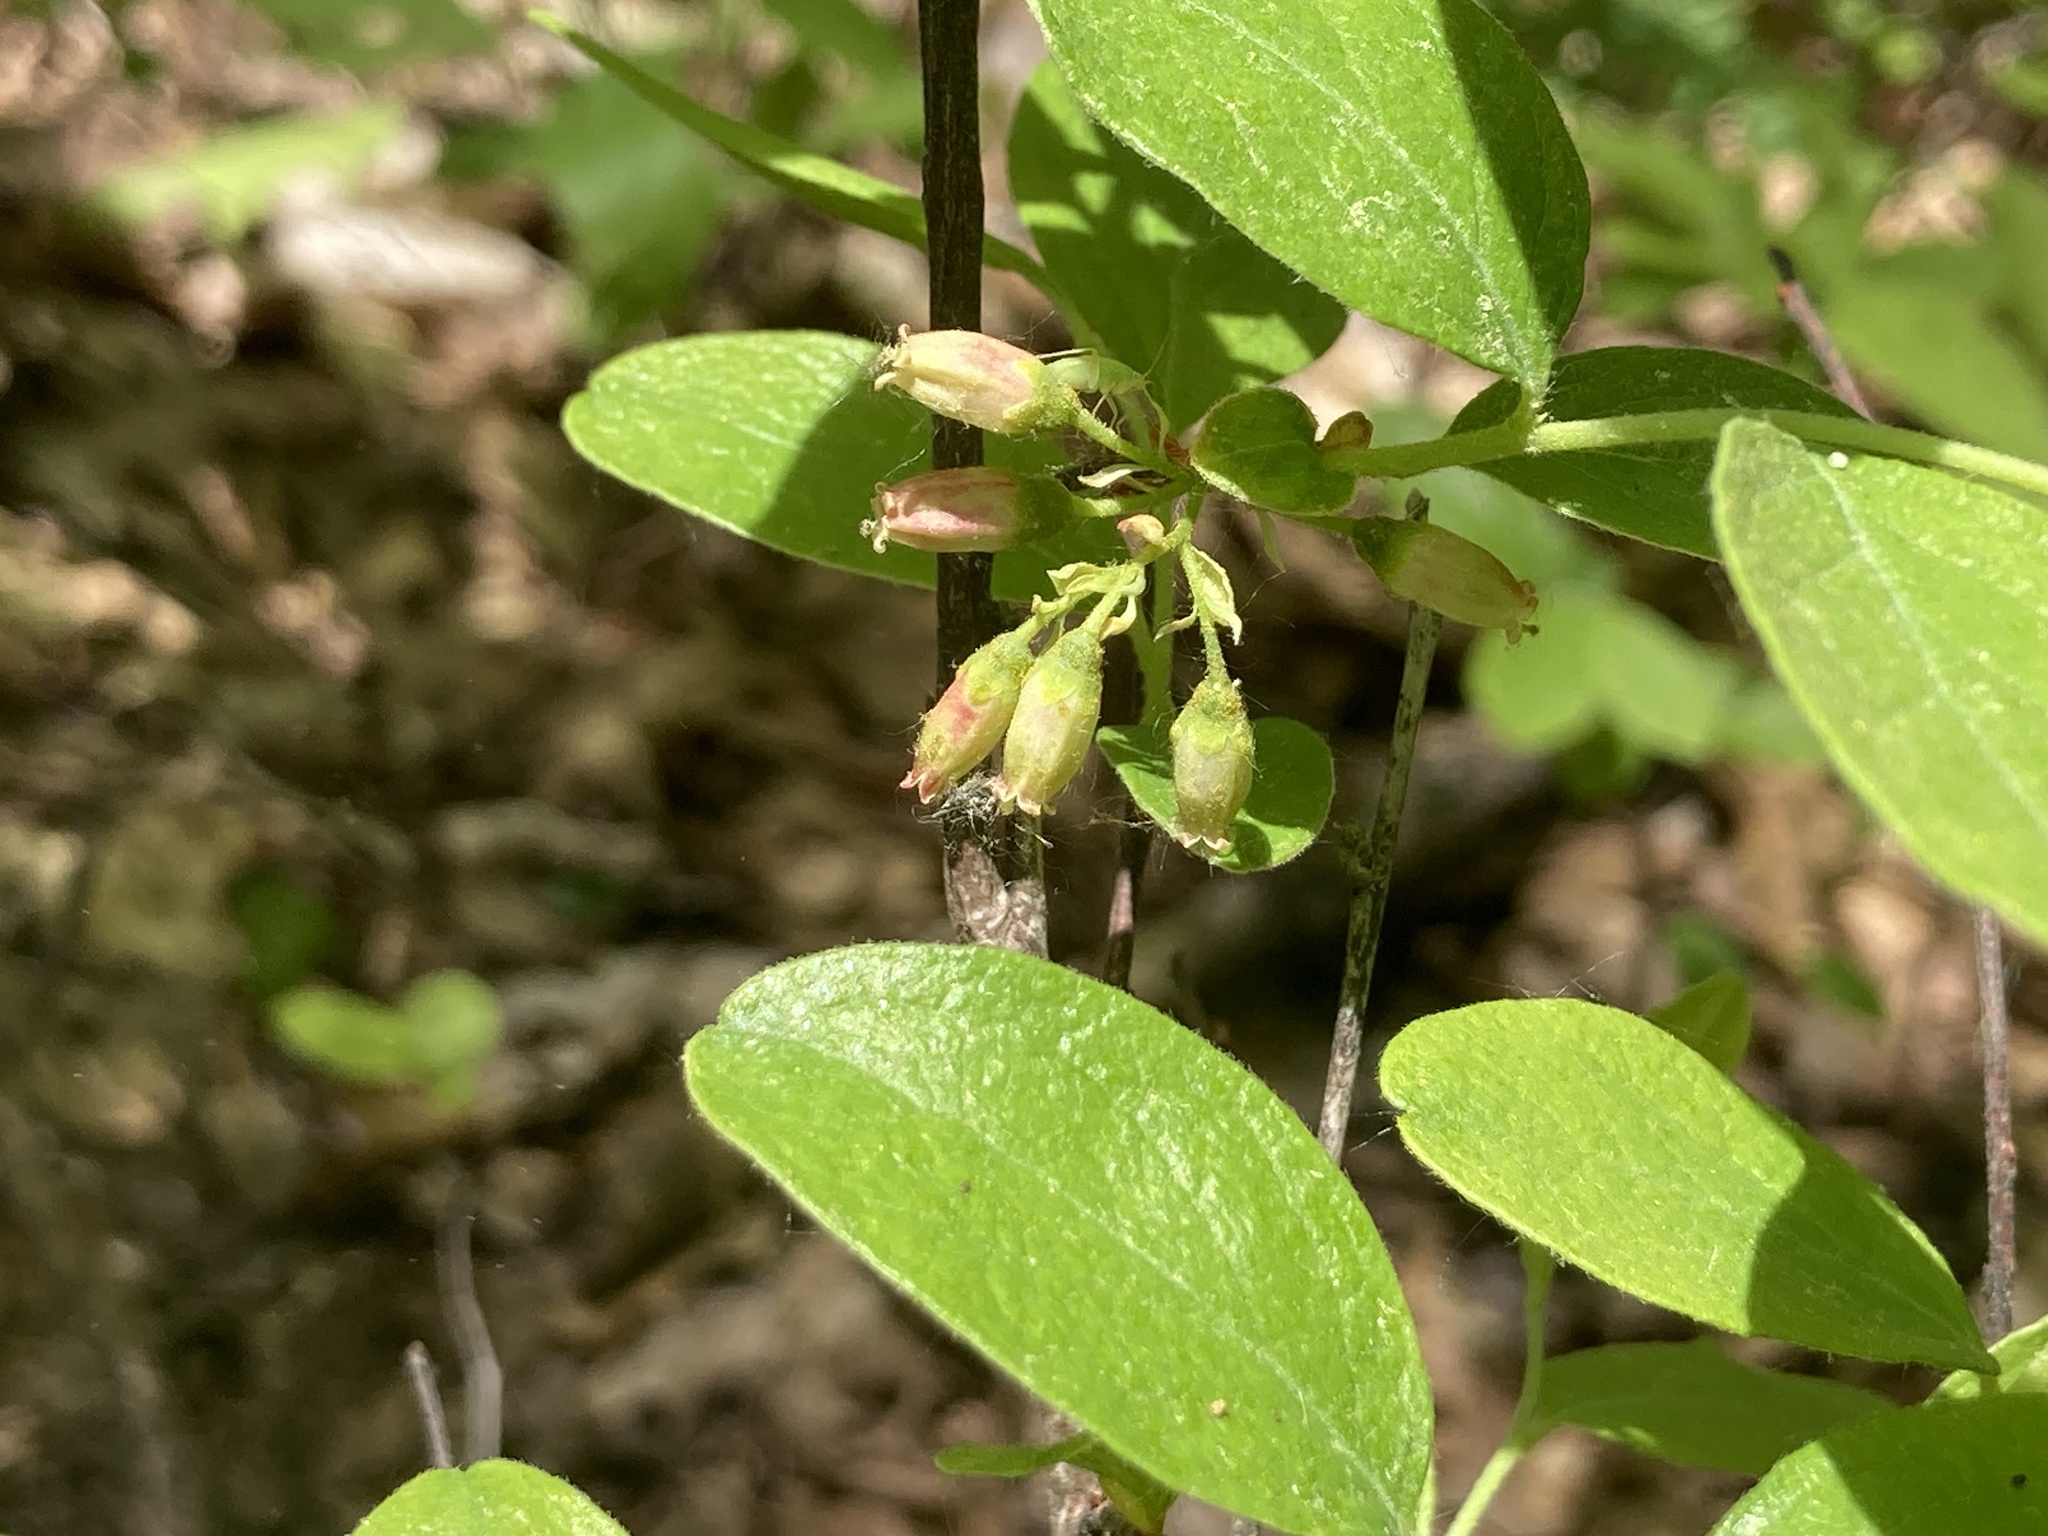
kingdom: Plantae
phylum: Tracheophyta
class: Magnoliopsida
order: Ericales
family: Ericaceae
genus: Gaylussacia
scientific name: Gaylussacia baccata
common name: Black huckleberry
